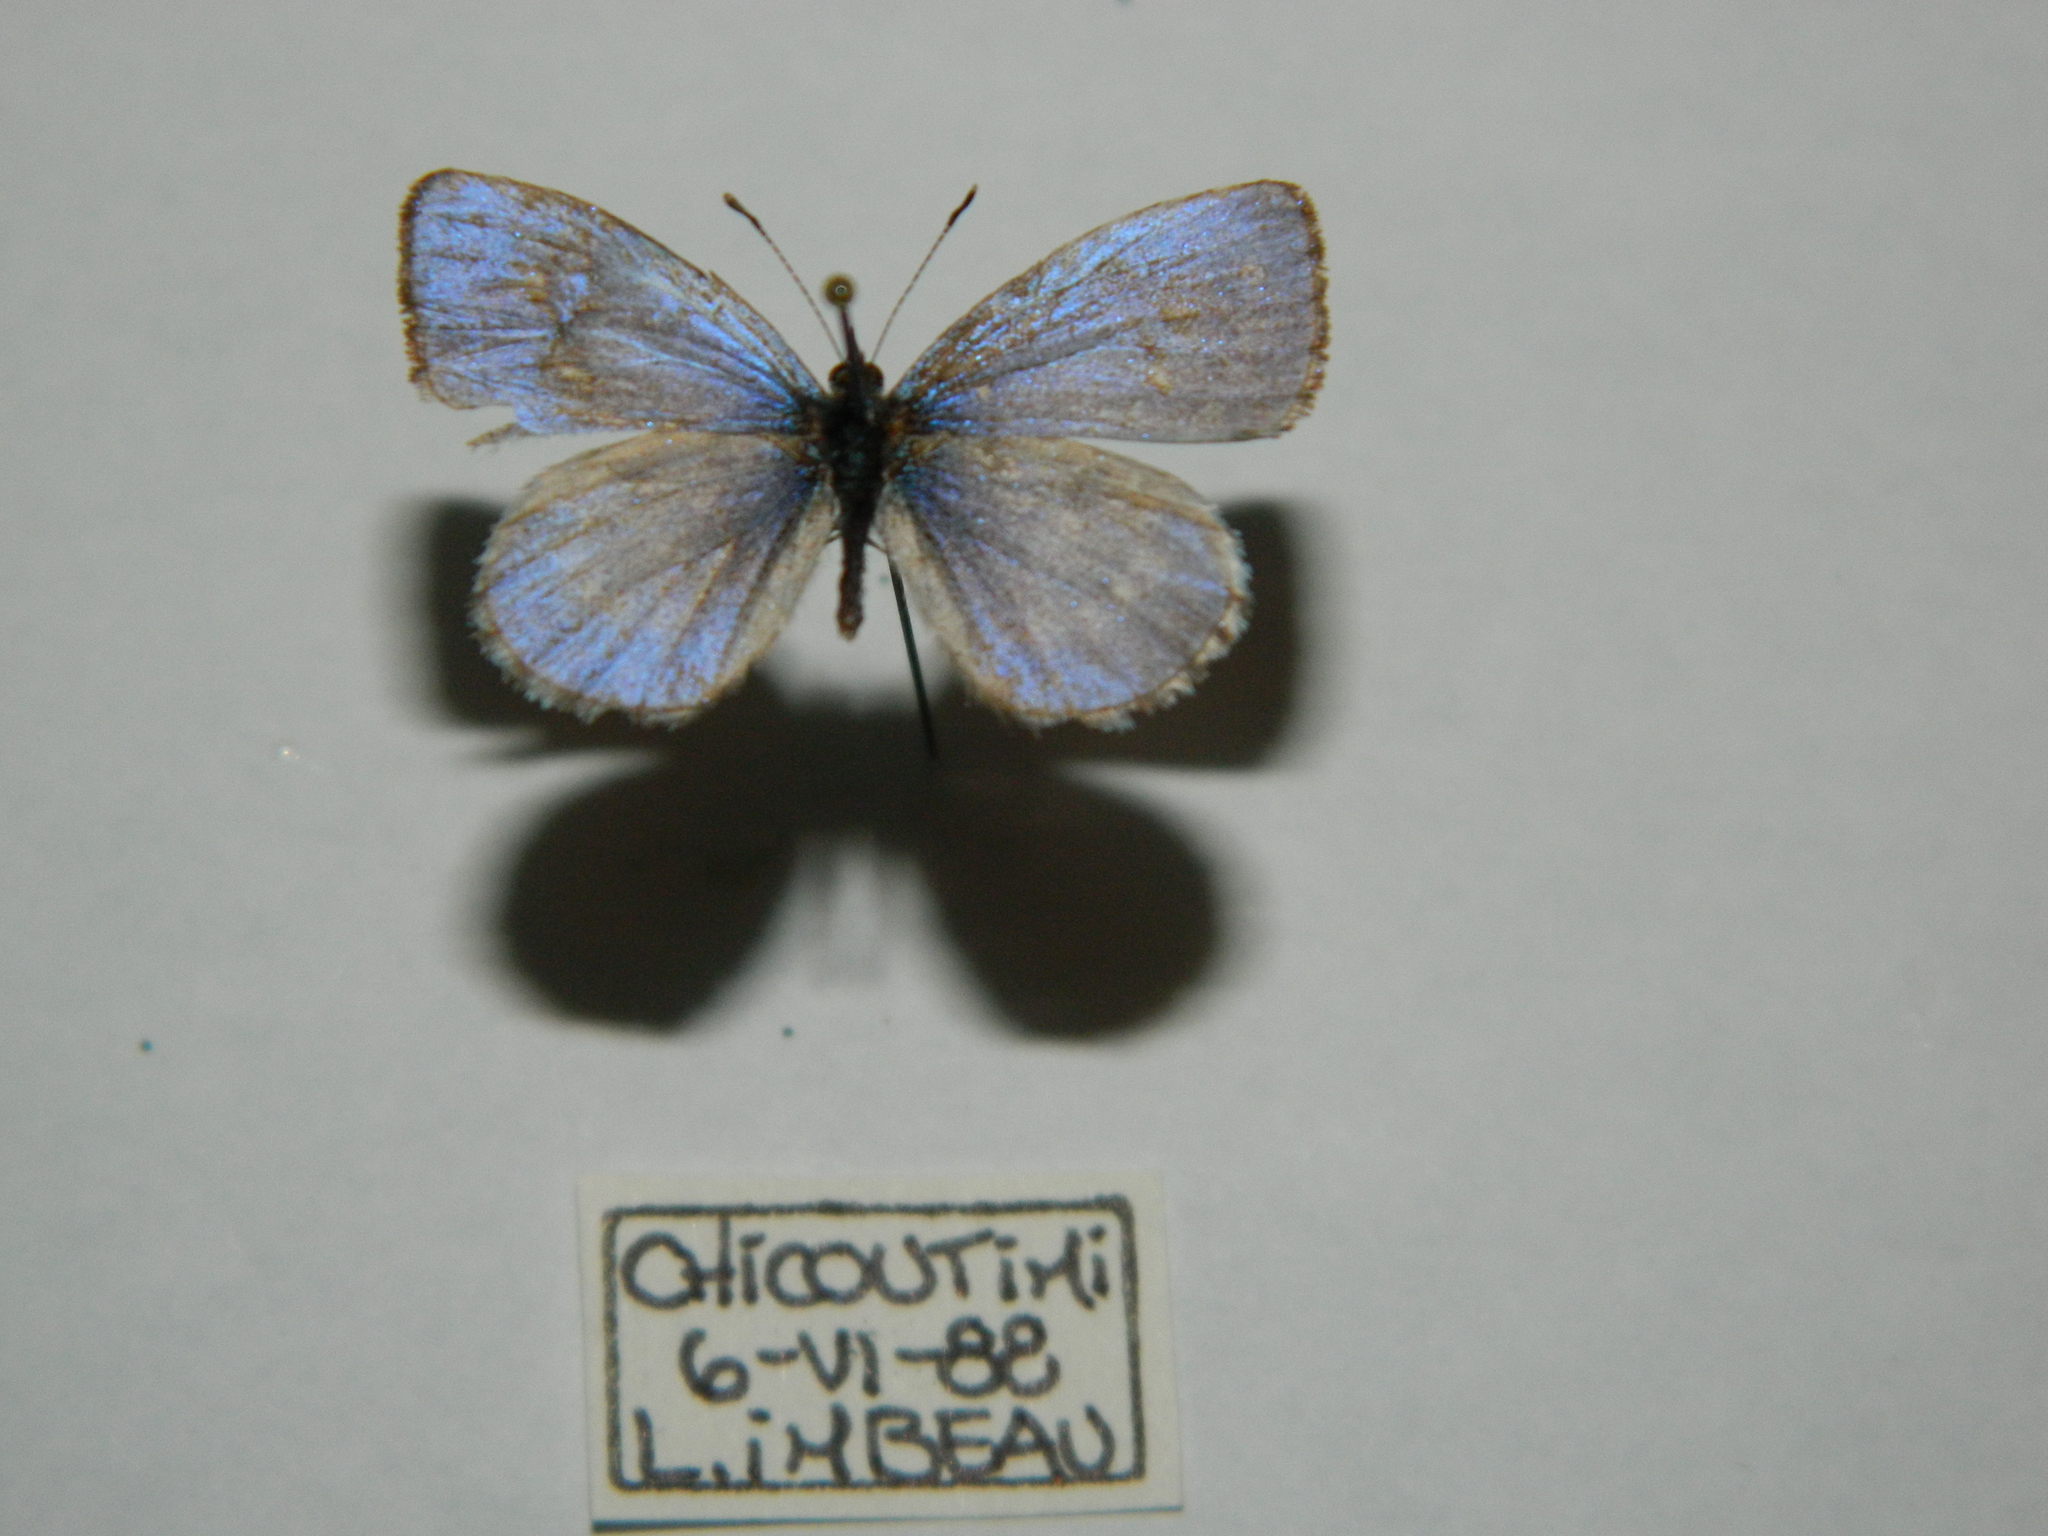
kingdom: Animalia
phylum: Arthropoda
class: Insecta
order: Lepidoptera
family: Lycaenidae
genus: Celastrina
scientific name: Celastrina lucia
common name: Lucia azure
